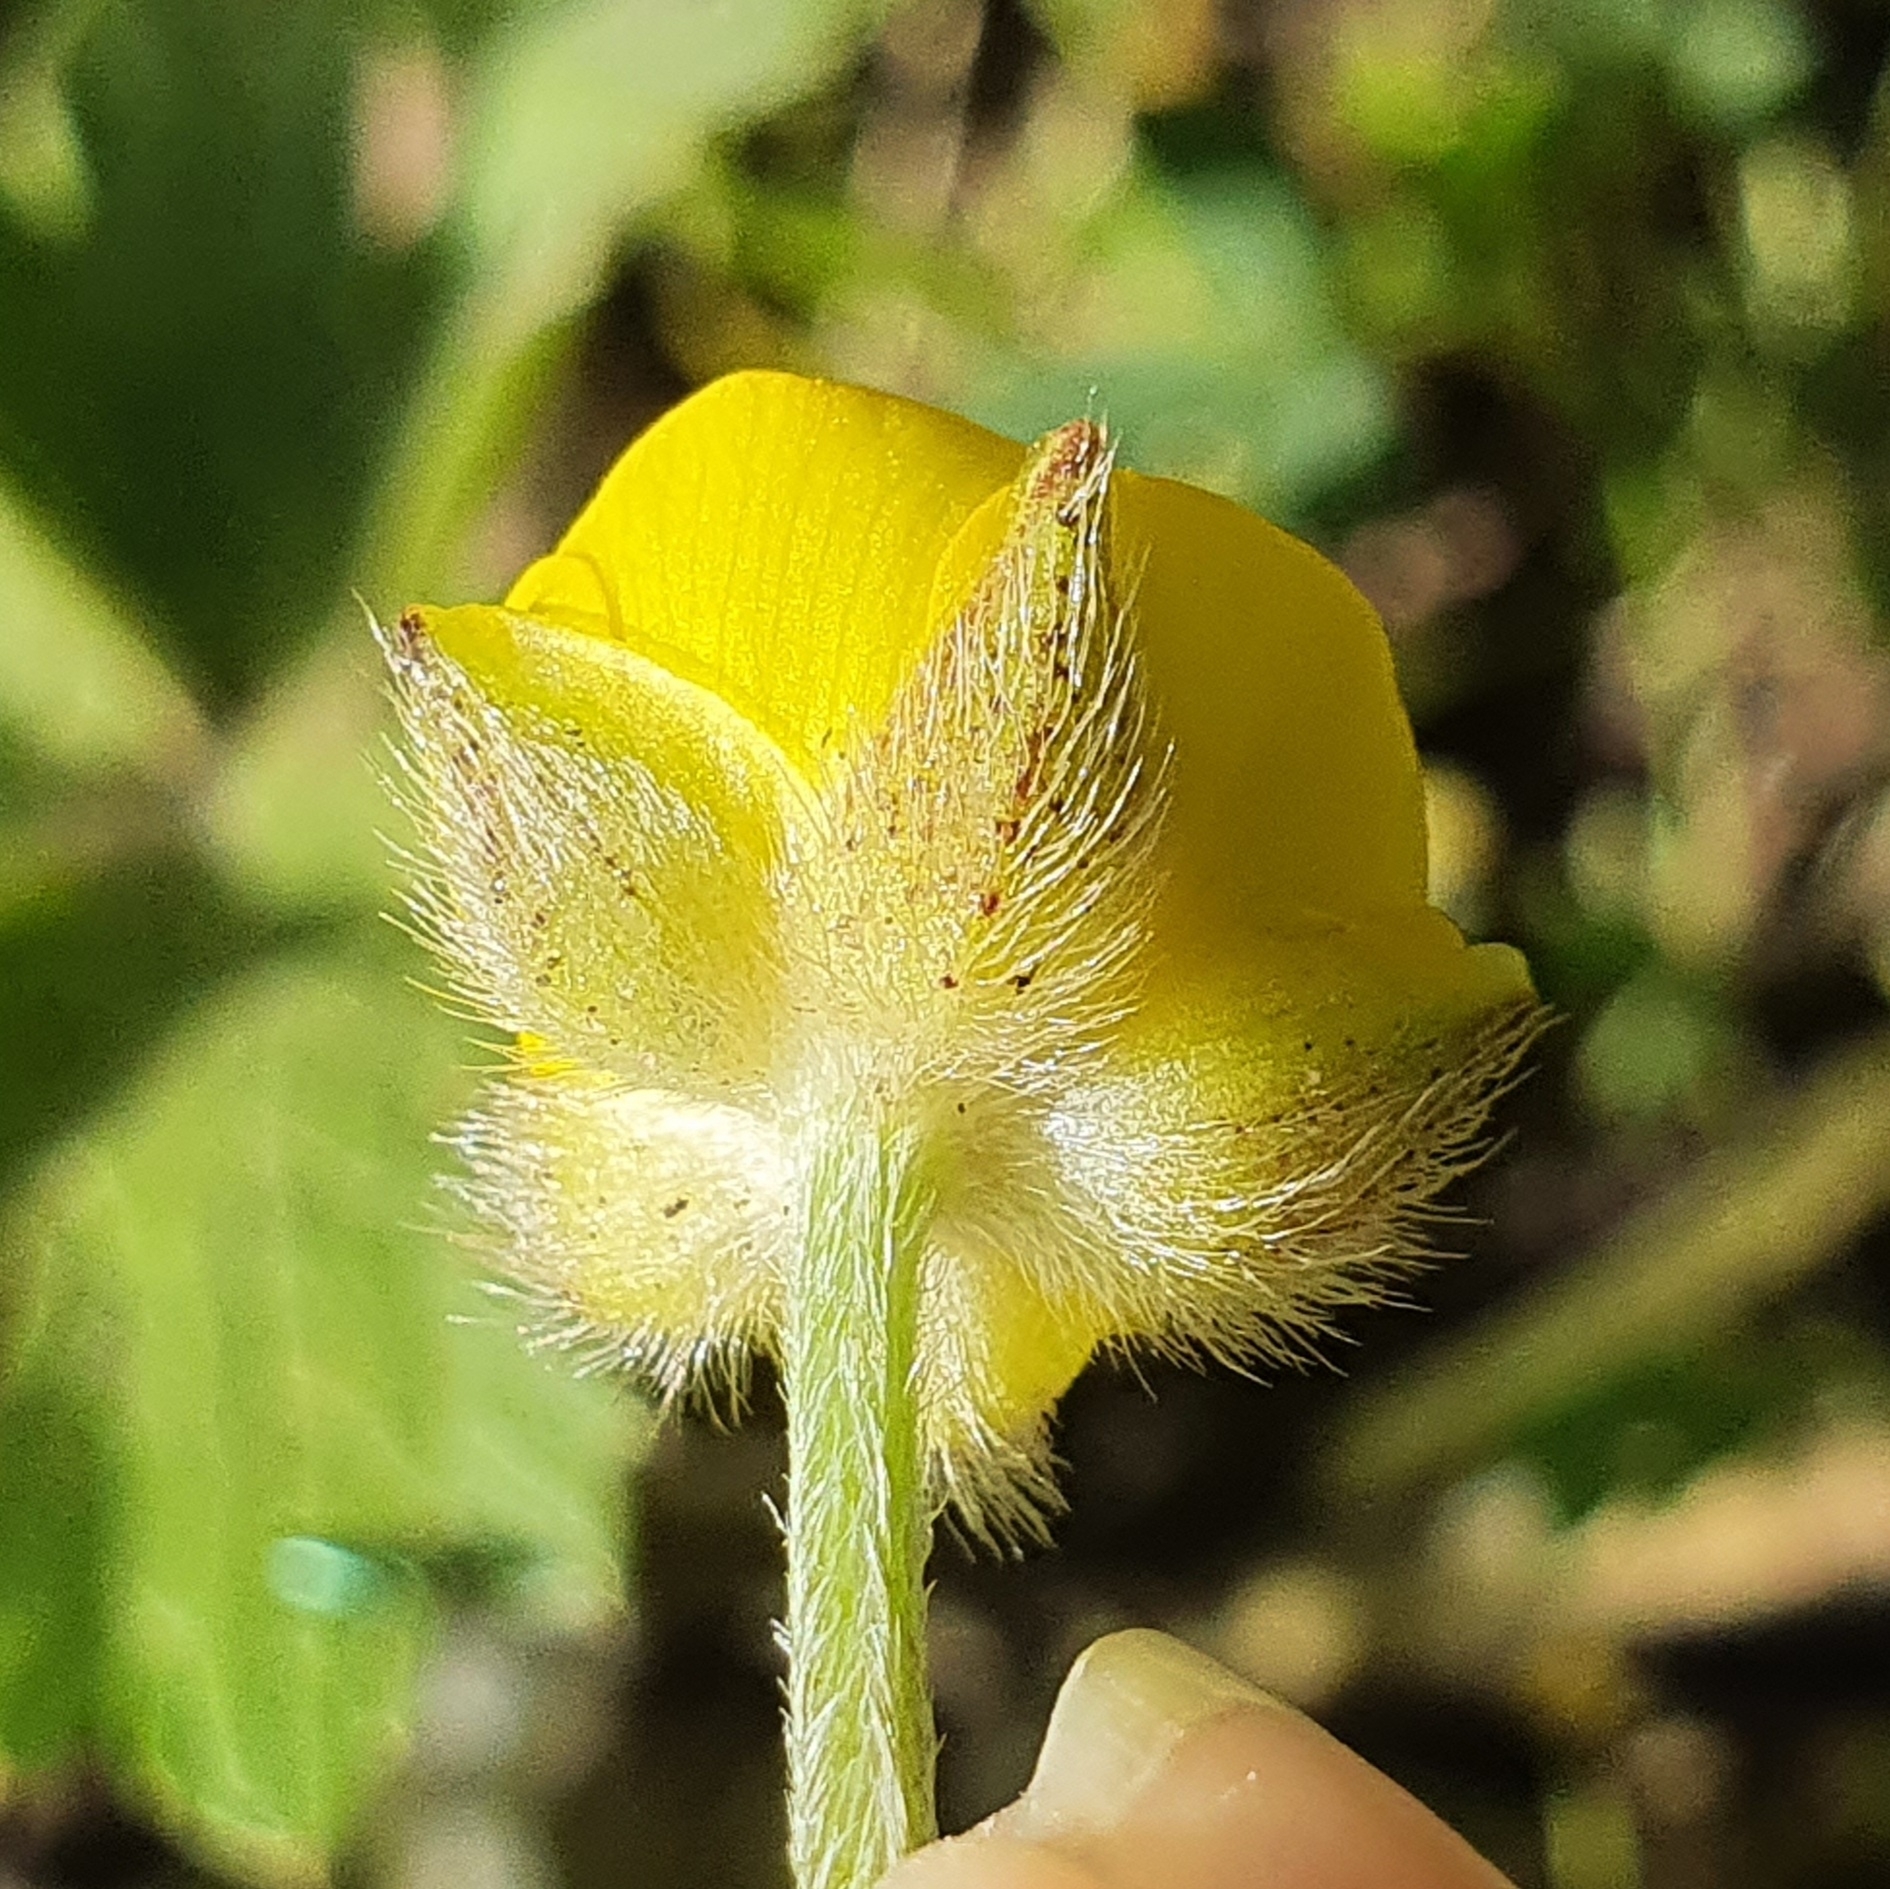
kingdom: Plantae
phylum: Tracheophyta
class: Magnoliopsida
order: Ranunculales
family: Ranunculaceae
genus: Ranunculus
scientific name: Ranunculus macrophyllus
